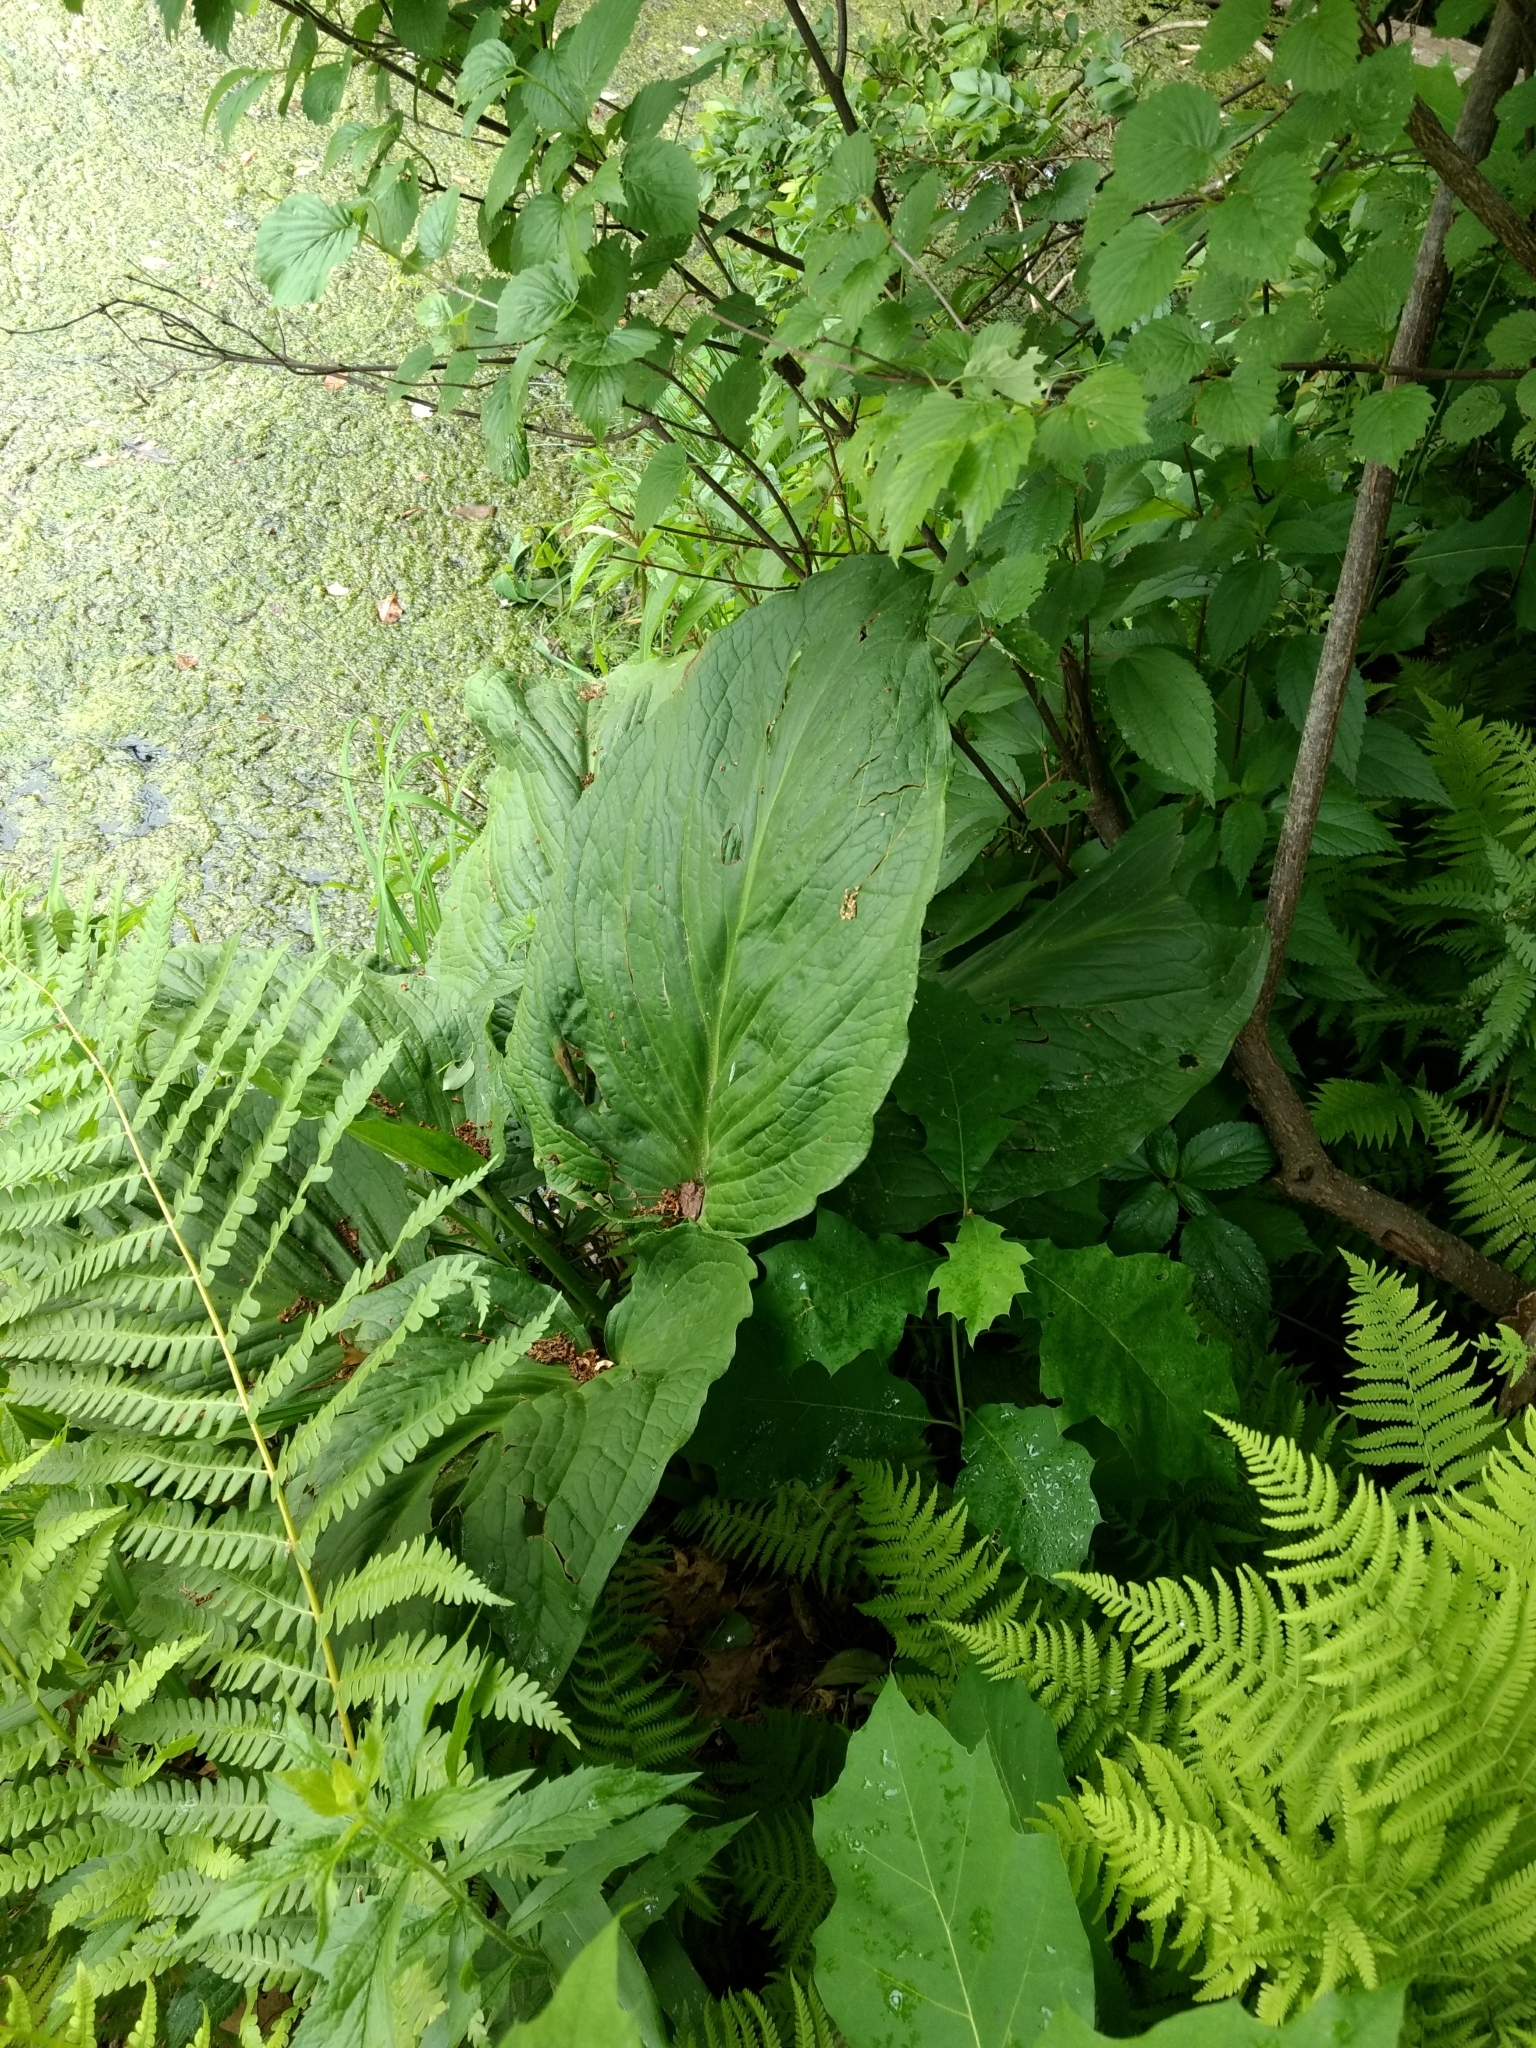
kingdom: Plantae
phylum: Tracheophyta
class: Liliopsida
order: Alismatales
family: Araceae
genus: Symplocarpus
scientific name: Symplocarpus foetidus
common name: Eastern skunk cabbage
